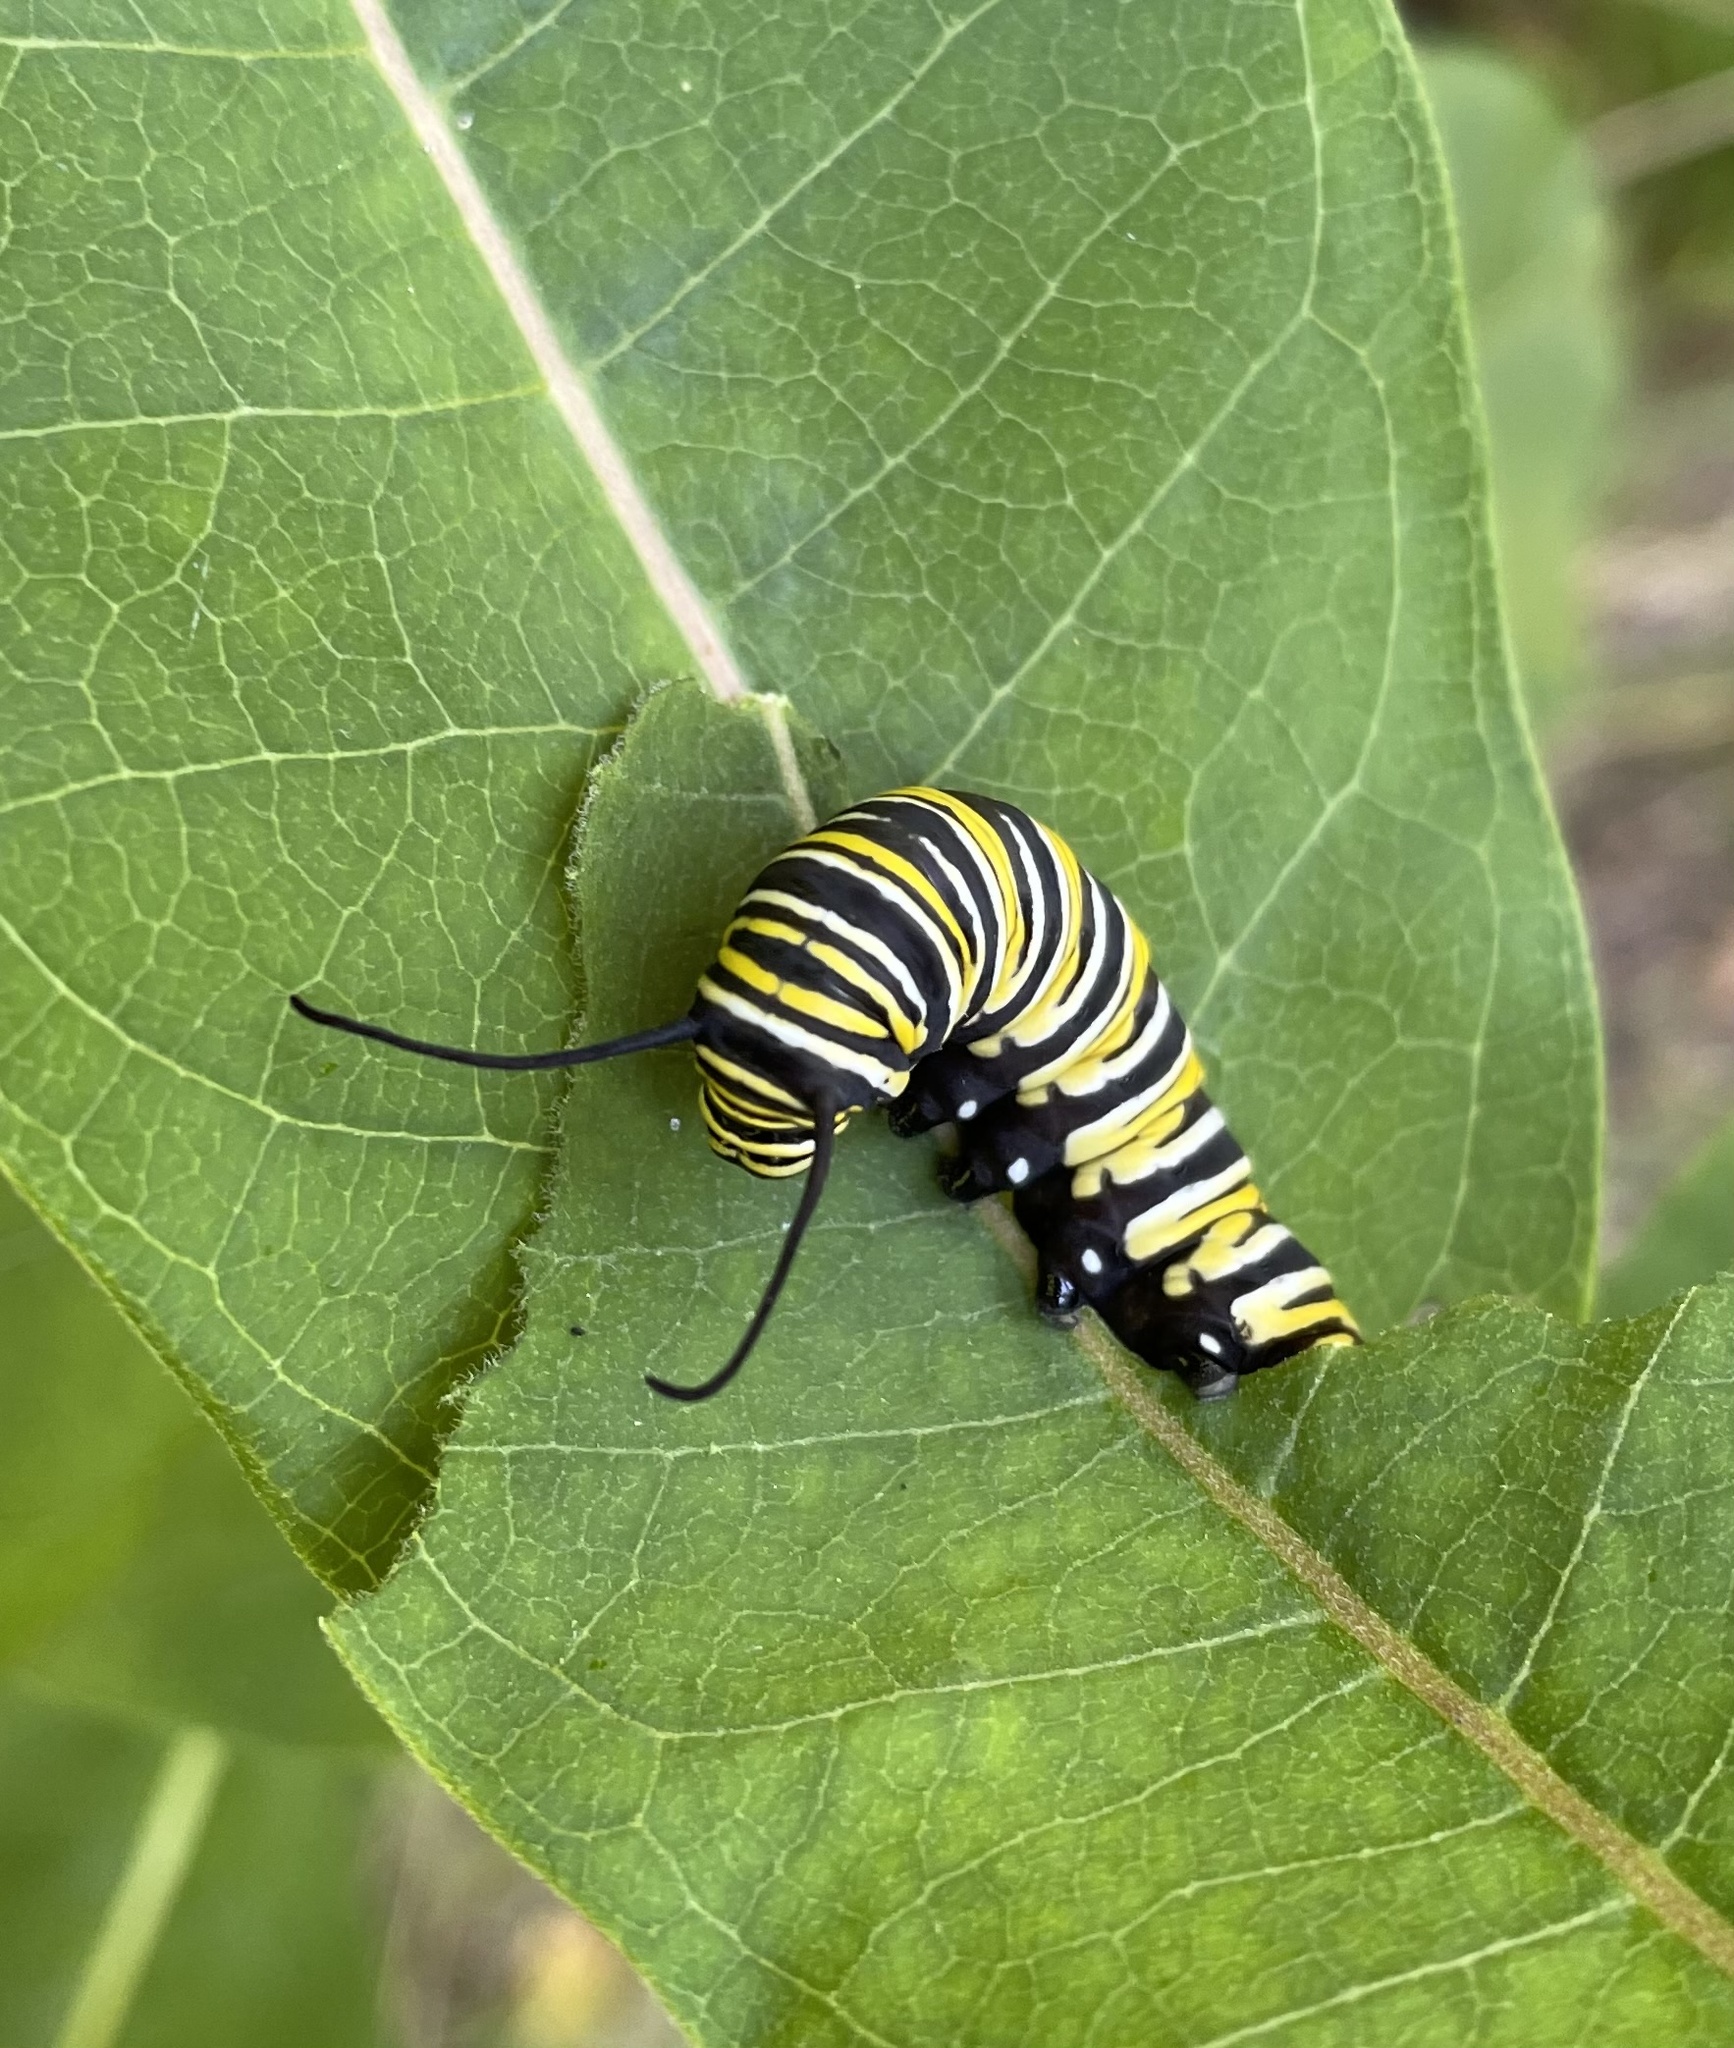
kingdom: Animalia
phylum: Arthropoda
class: Insecta
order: Lepidoptera
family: Nymphalidae
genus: Danaus
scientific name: Danaus plexippus
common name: Monarch
